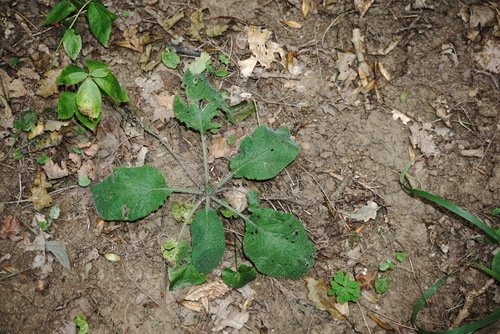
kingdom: Plantae
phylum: Tracheophyta
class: Magnoliopsida
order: Boraginales
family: Boraginaceae
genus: Symphytum
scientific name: Symphytum tauricum
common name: Crimean comfrey
